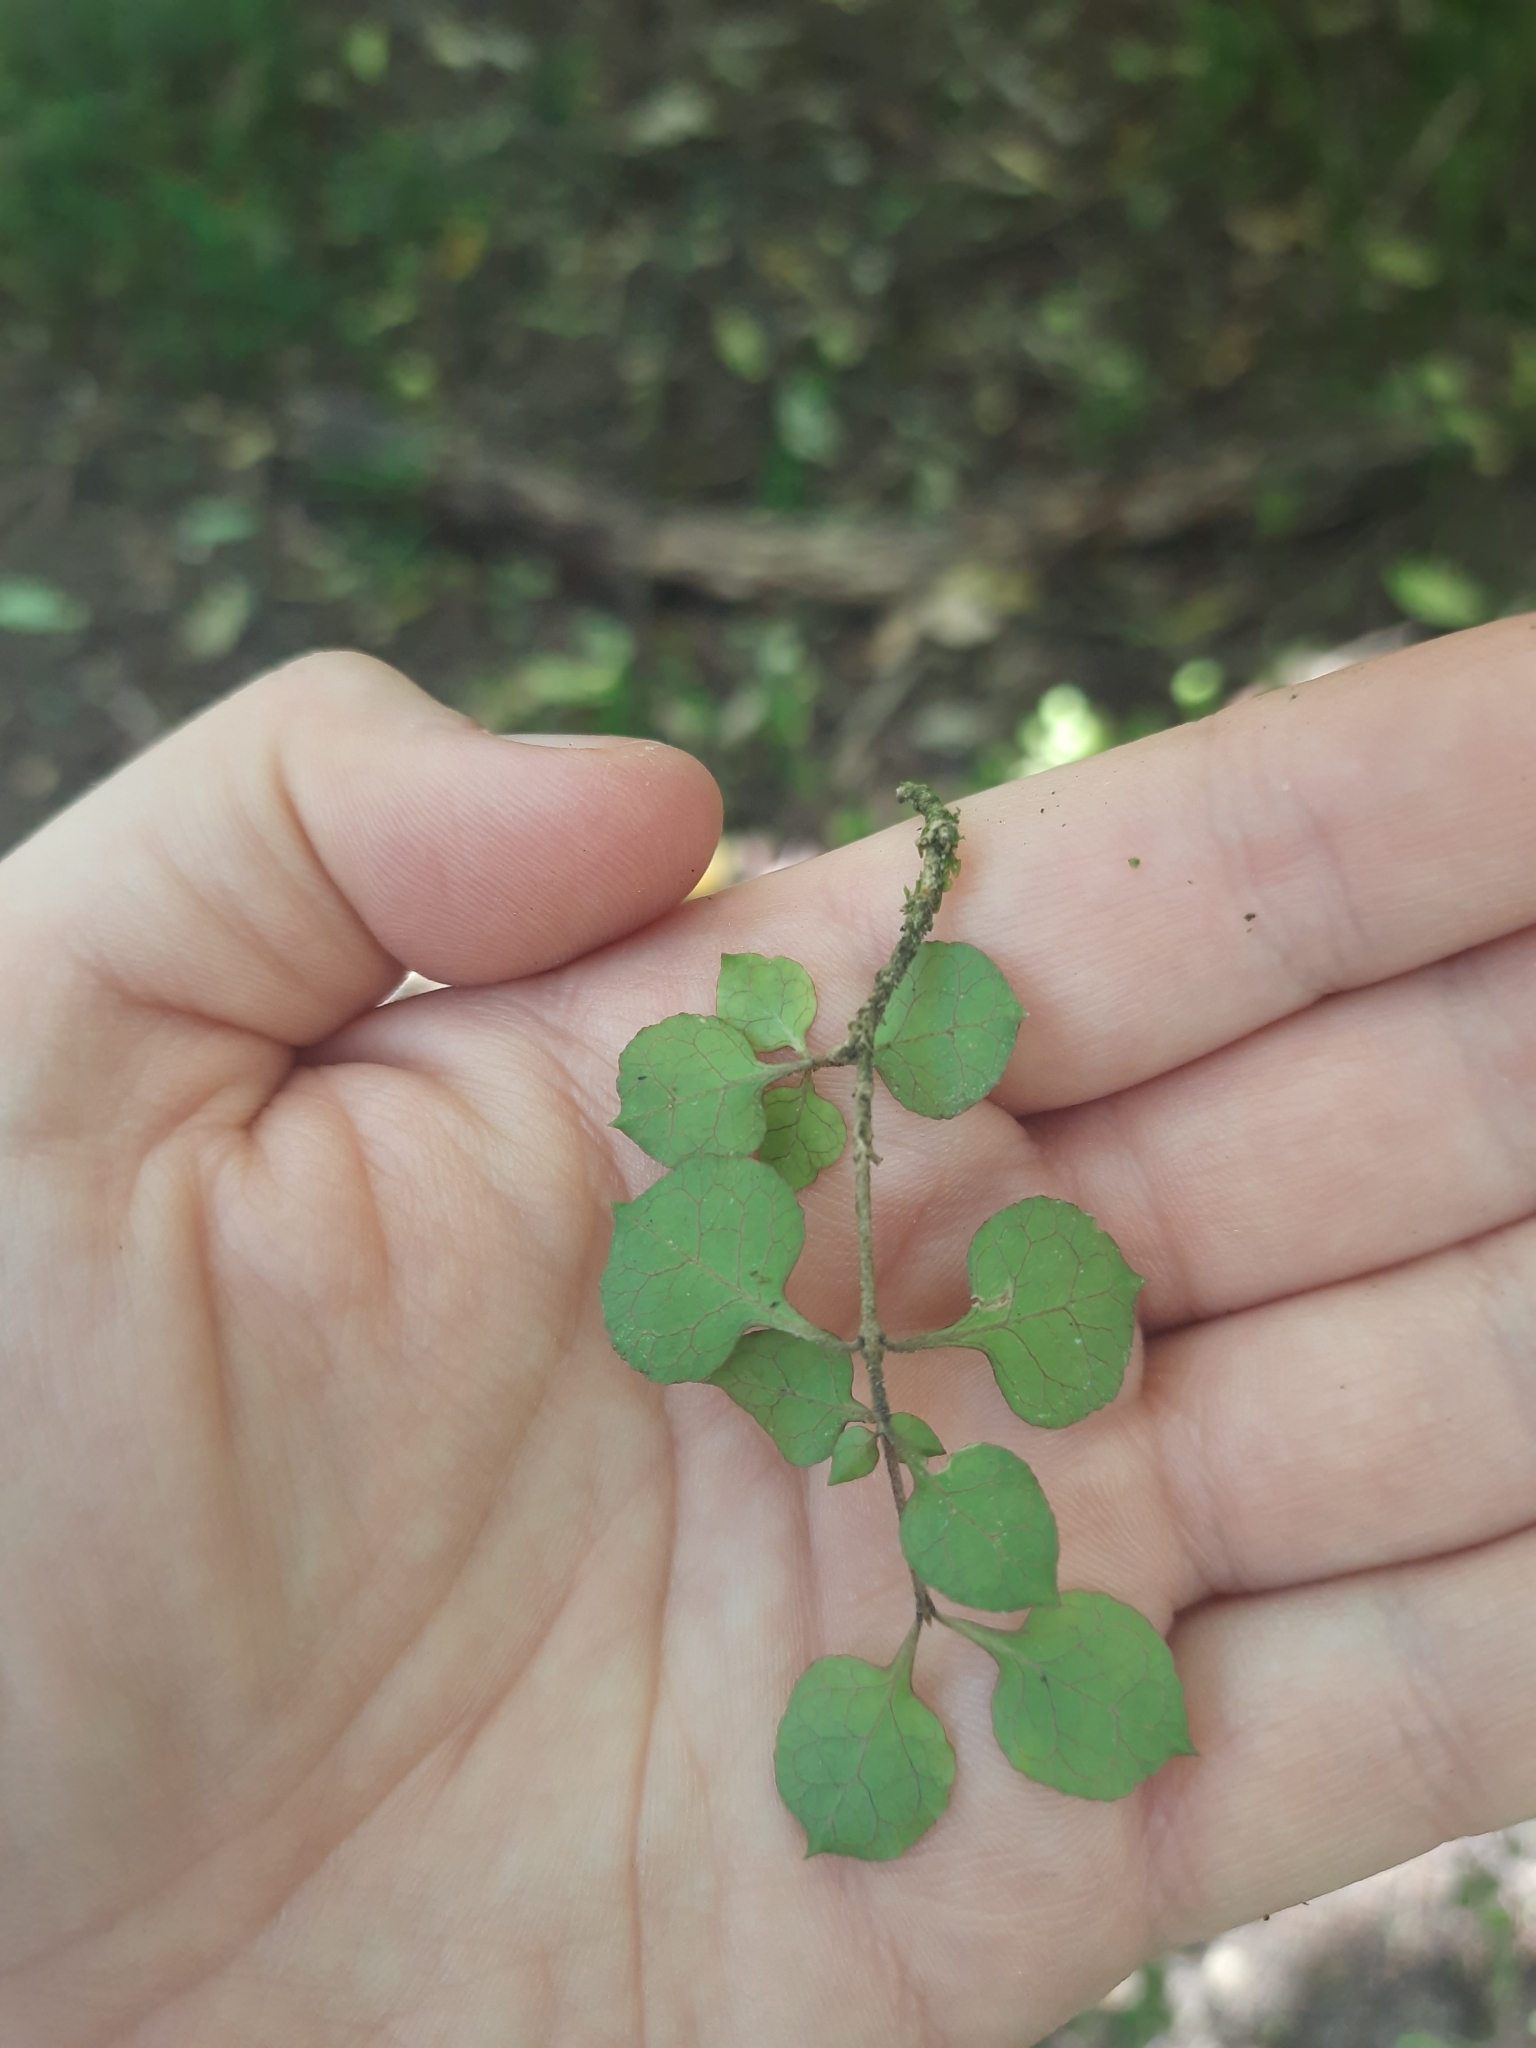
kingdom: Plantae
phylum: Tracheophyta
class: Magnoliopsida
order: Gentianales
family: Rubiaceae
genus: Coprosma
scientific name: Coprosma areolata
